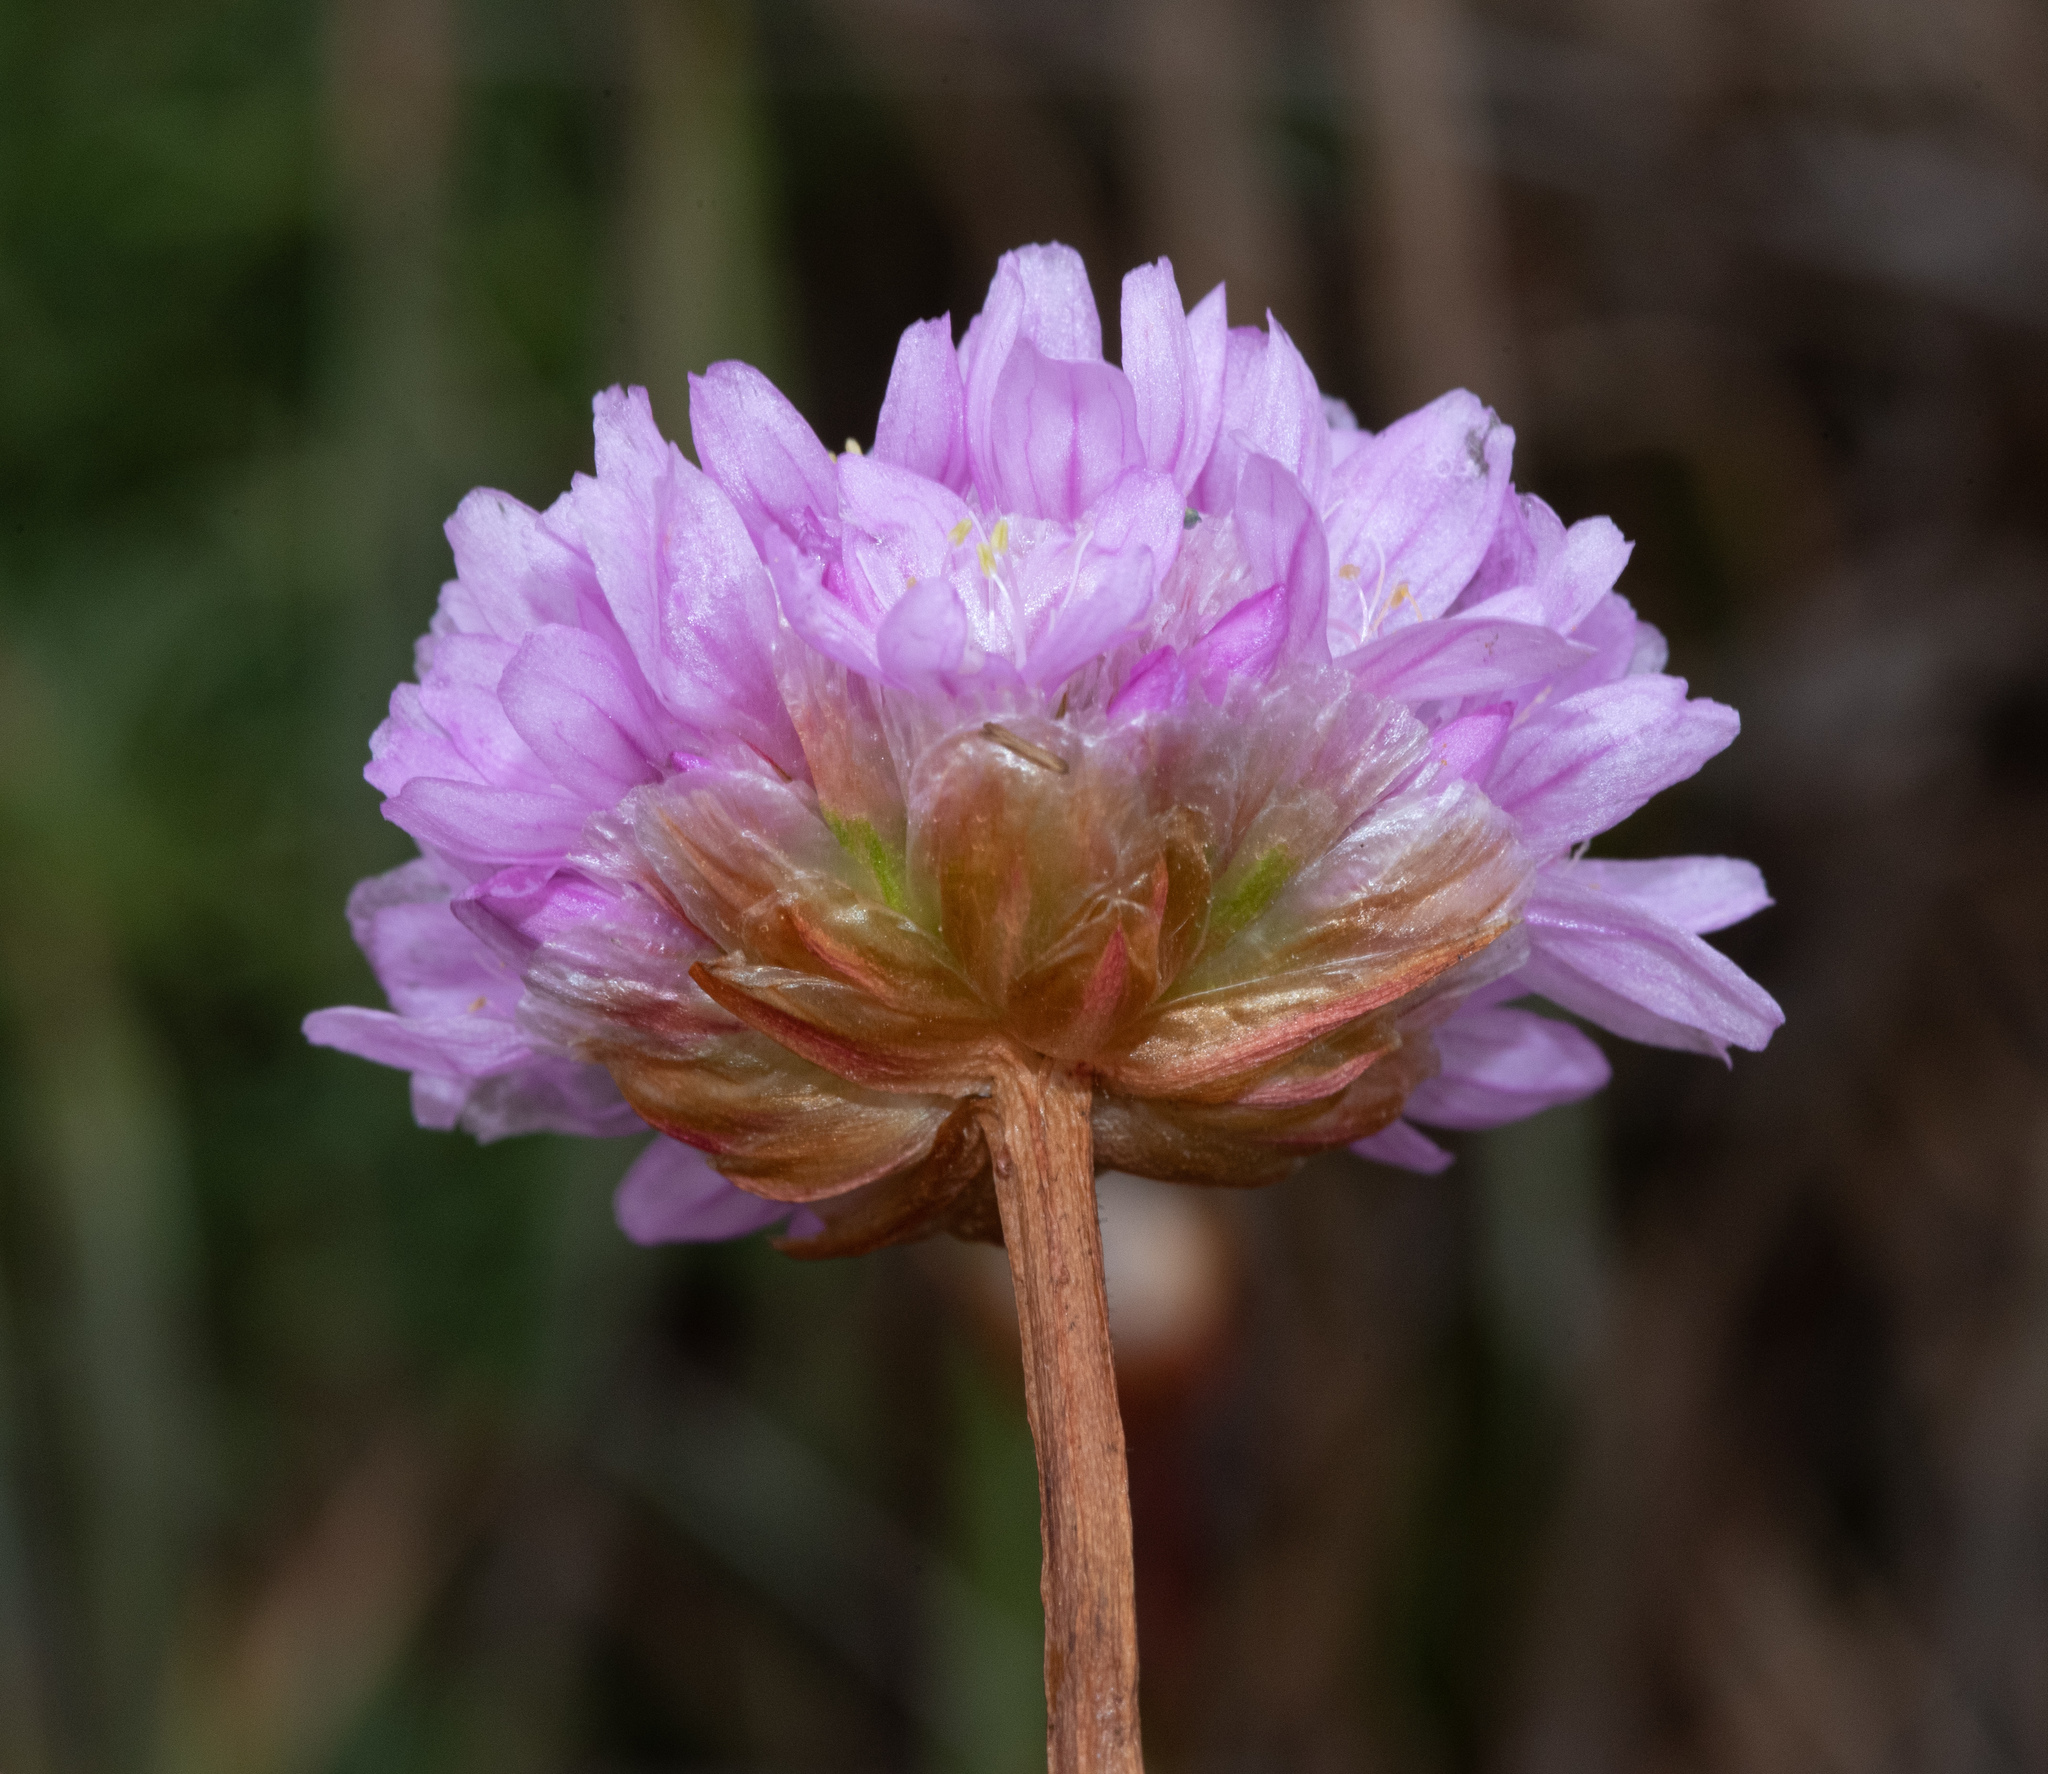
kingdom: Plantae
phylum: Tracheophyta
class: Magnoliopsida
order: Caryophyllales
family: Plumbaginaceae
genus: Armeria
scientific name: Armeria maritima
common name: Thrift
